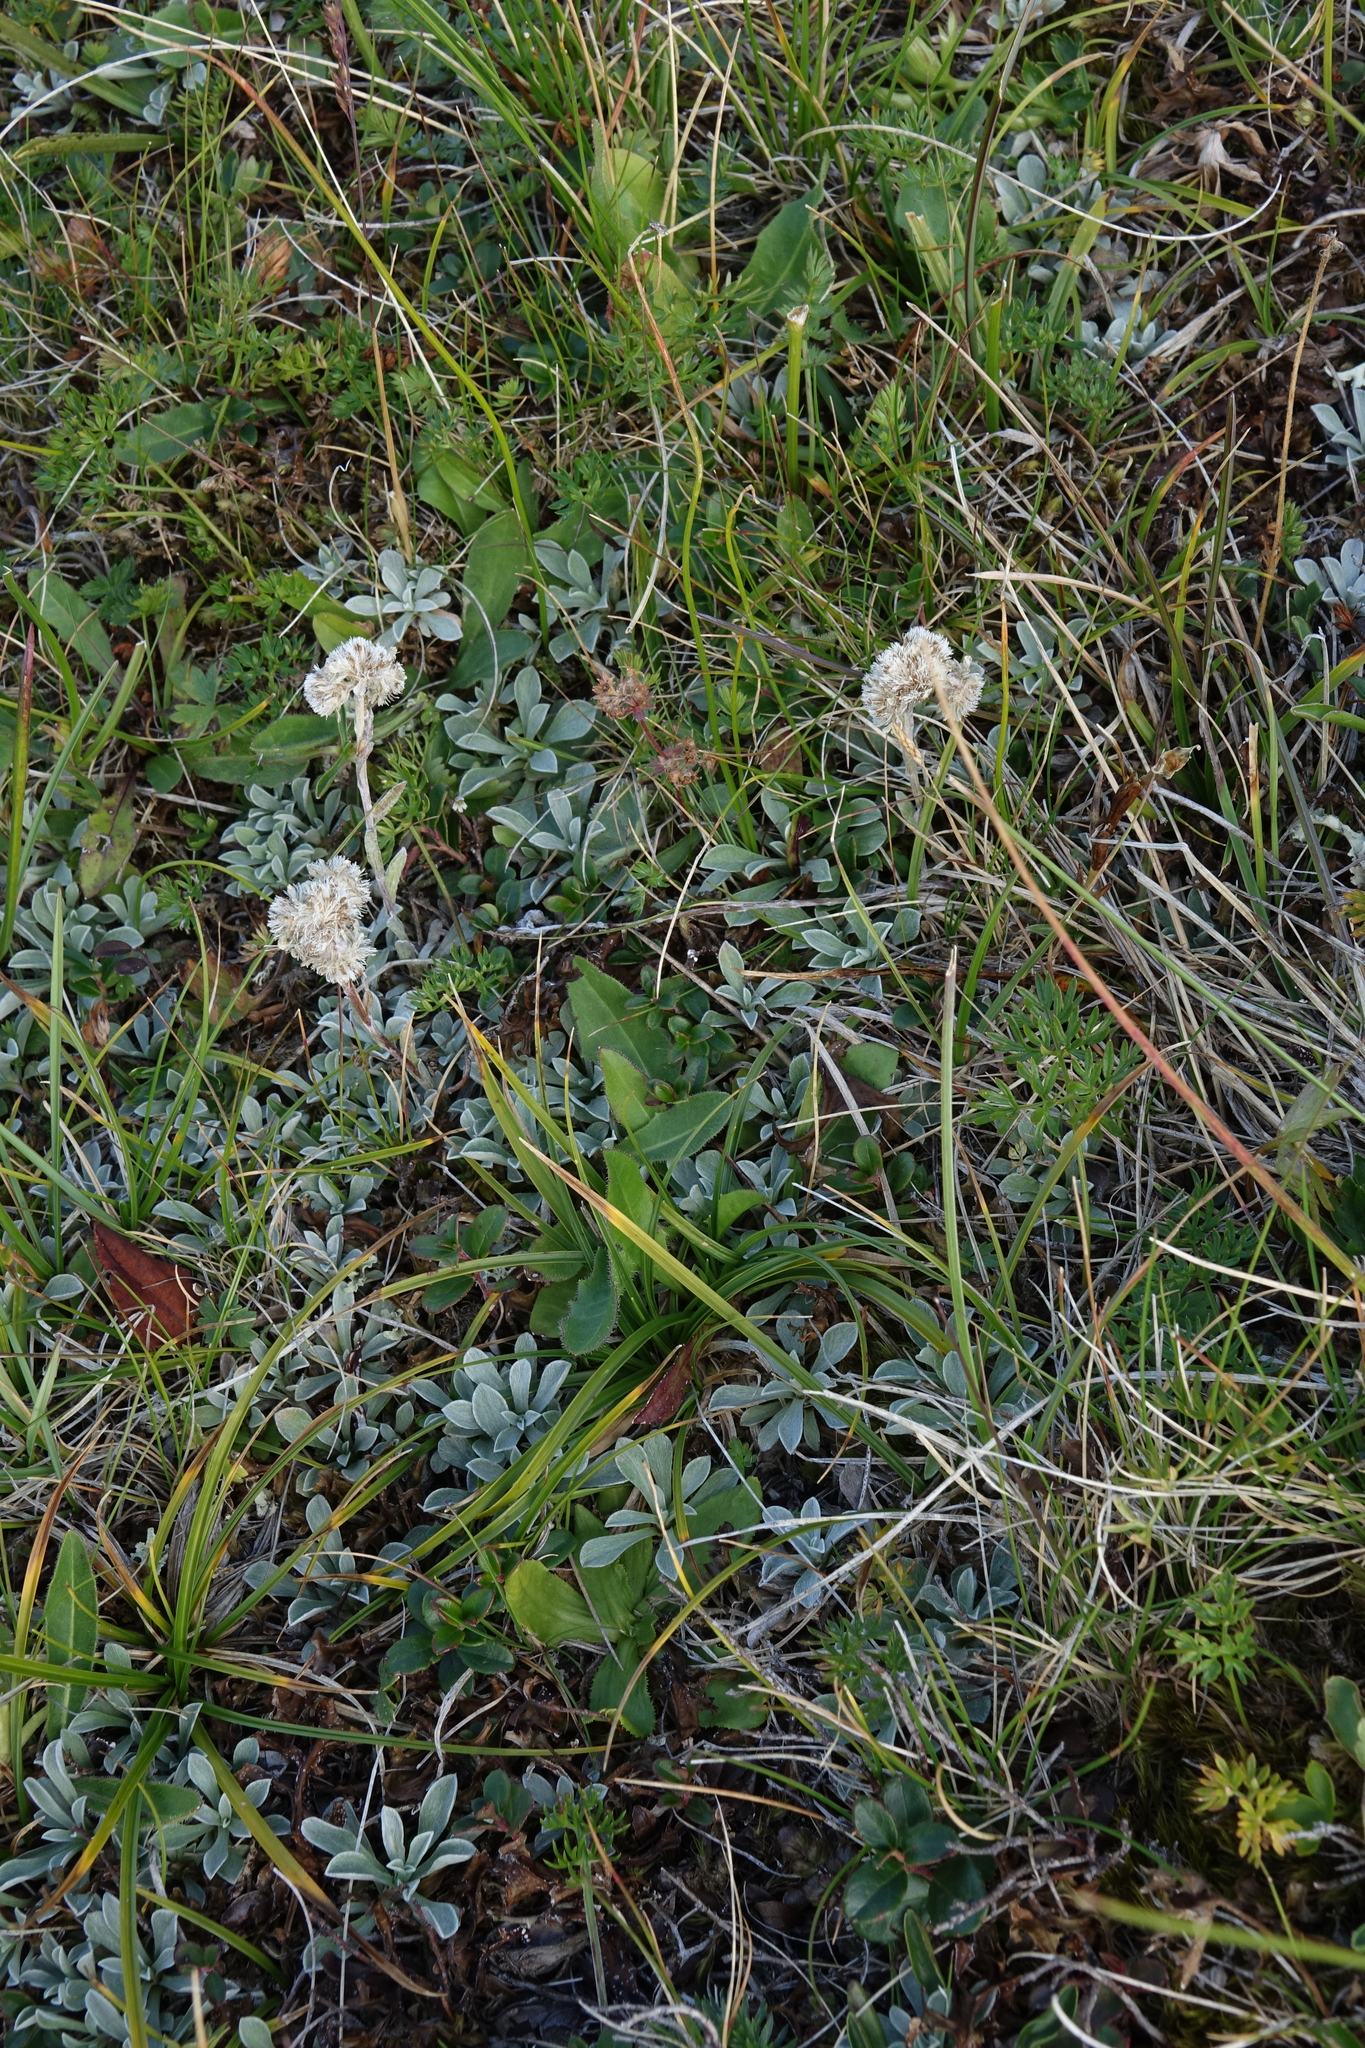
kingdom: Plantae
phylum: Tracheophyta
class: Magnoliopsida
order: Asterales
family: Asteraceae
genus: Antennaria
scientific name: Antennaria caucasica
